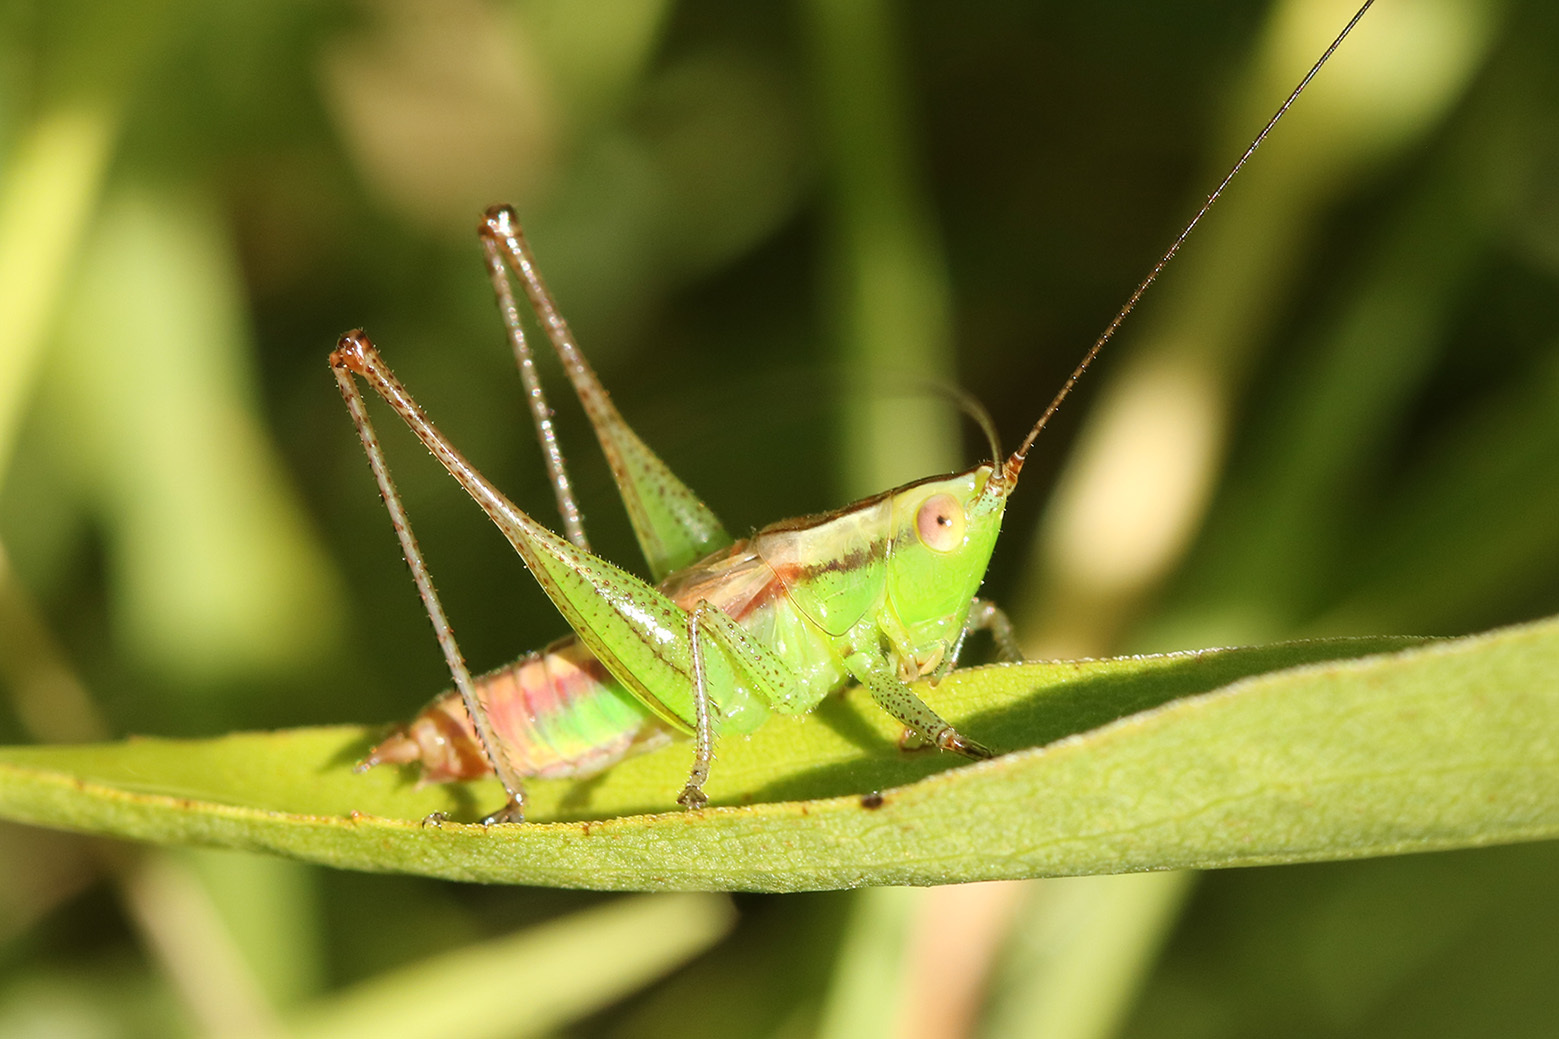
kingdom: Animalia
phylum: Arthropoda
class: Insecta
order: Orthoptera
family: Tettigoniidae
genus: Conocephalus
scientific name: Conocephalus doryphorus
